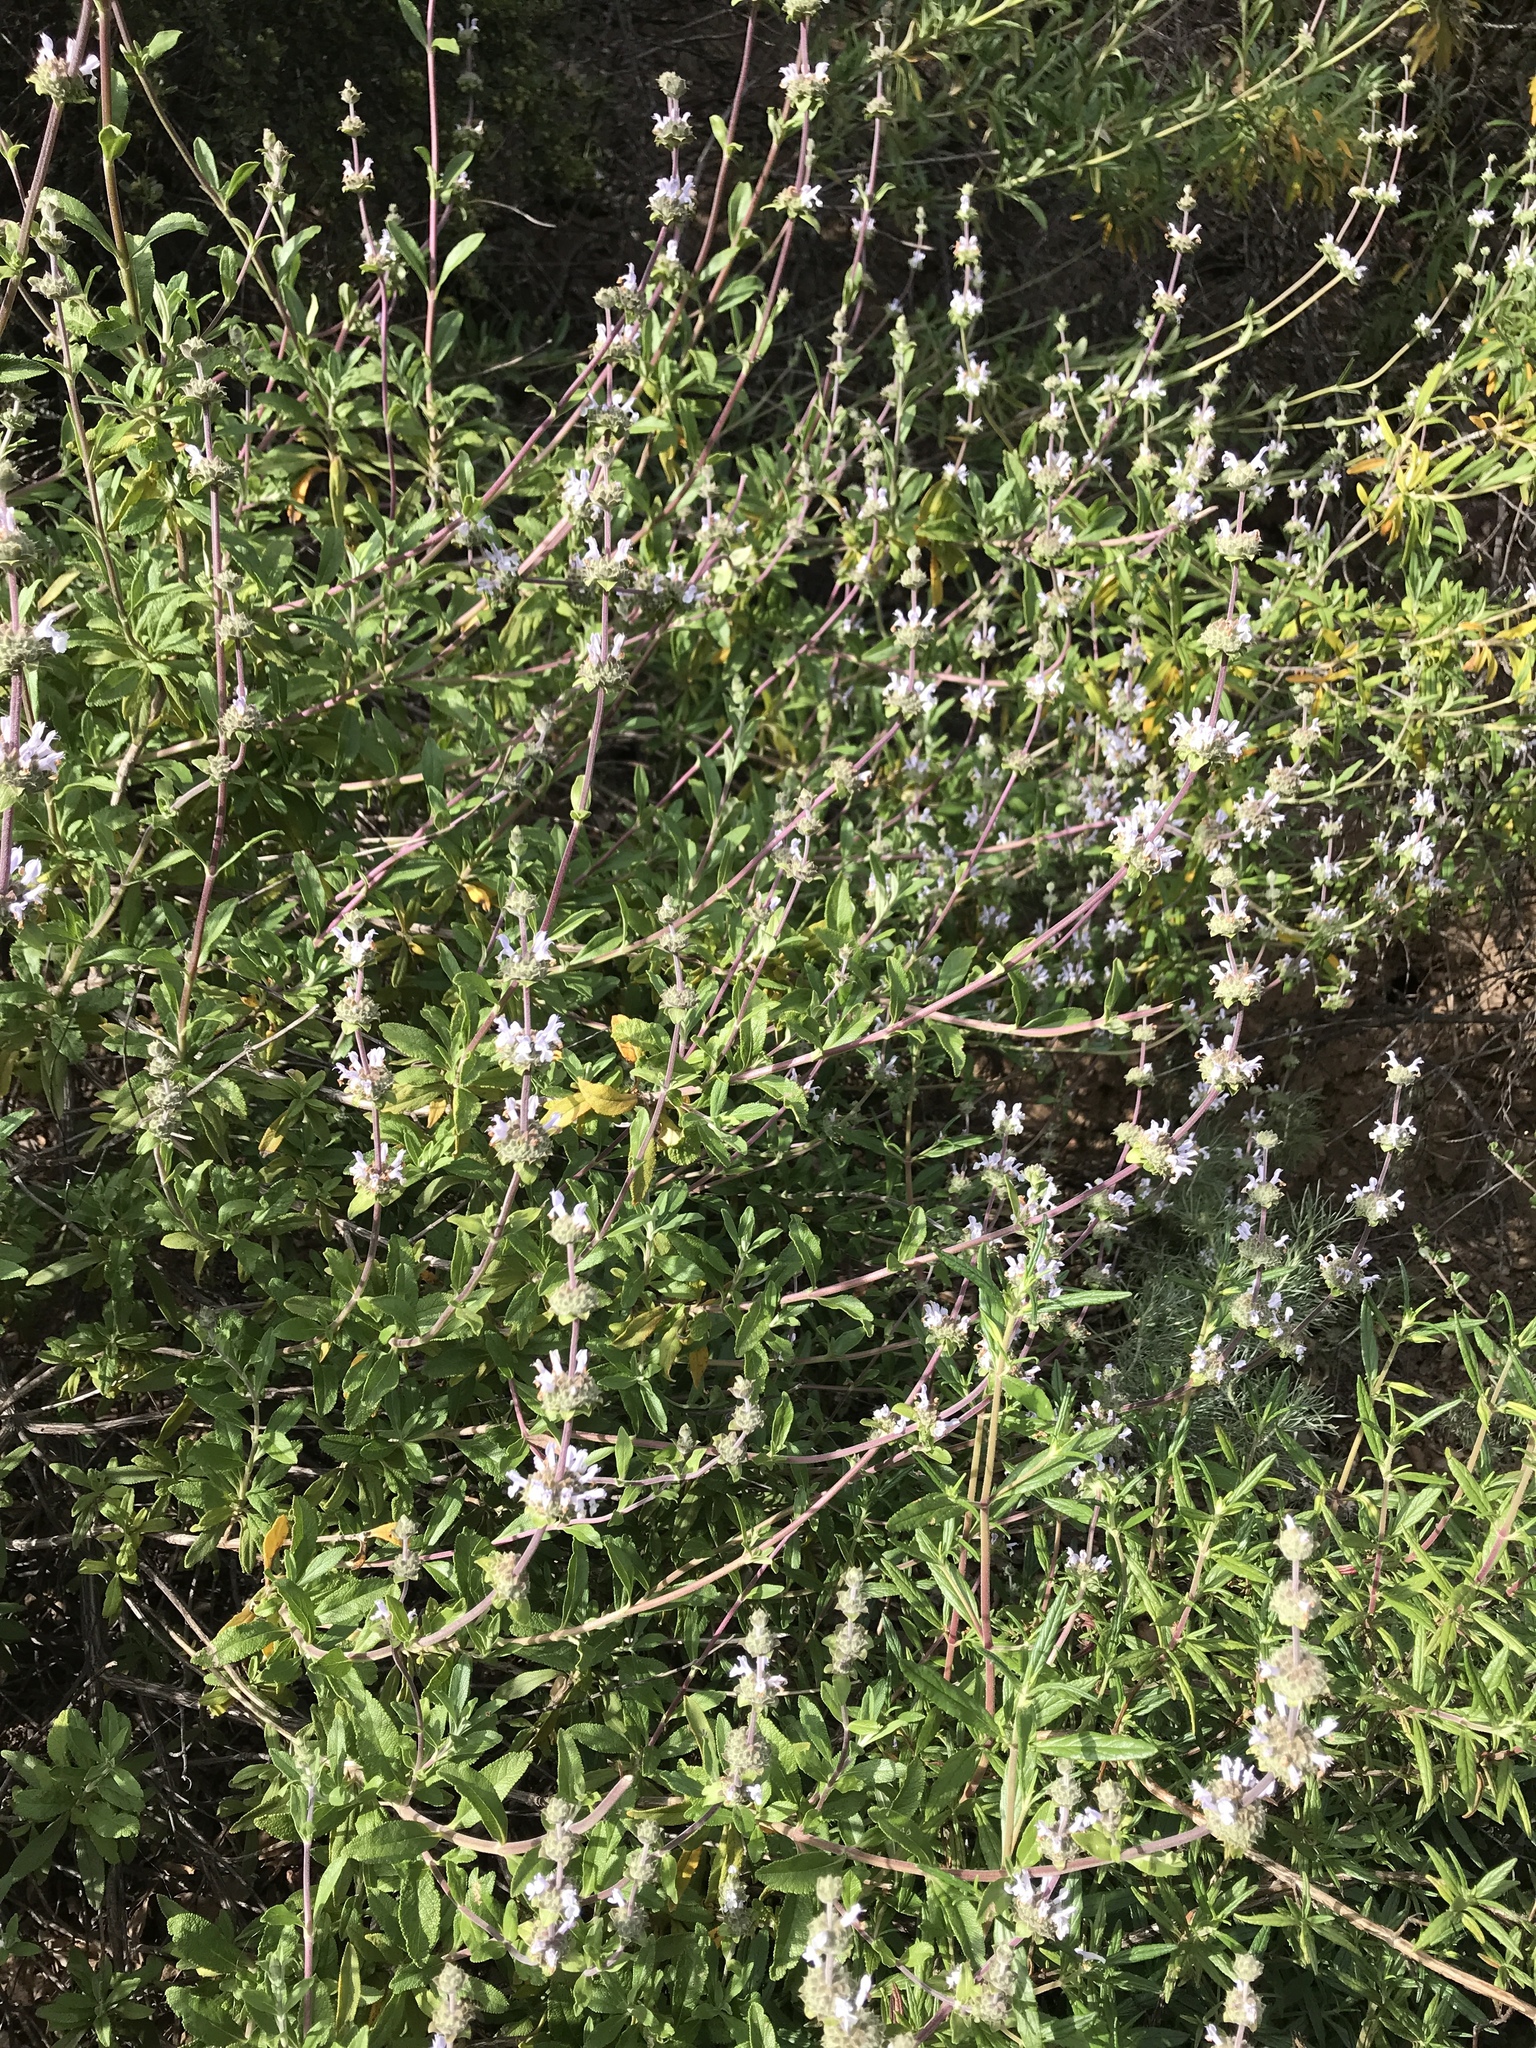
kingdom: Plantae
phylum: Tracheophyta
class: Magnoliopsida
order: Lamiales
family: Lamiaceae
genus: Salvia
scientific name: Salvia mellifera
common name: Black sage
